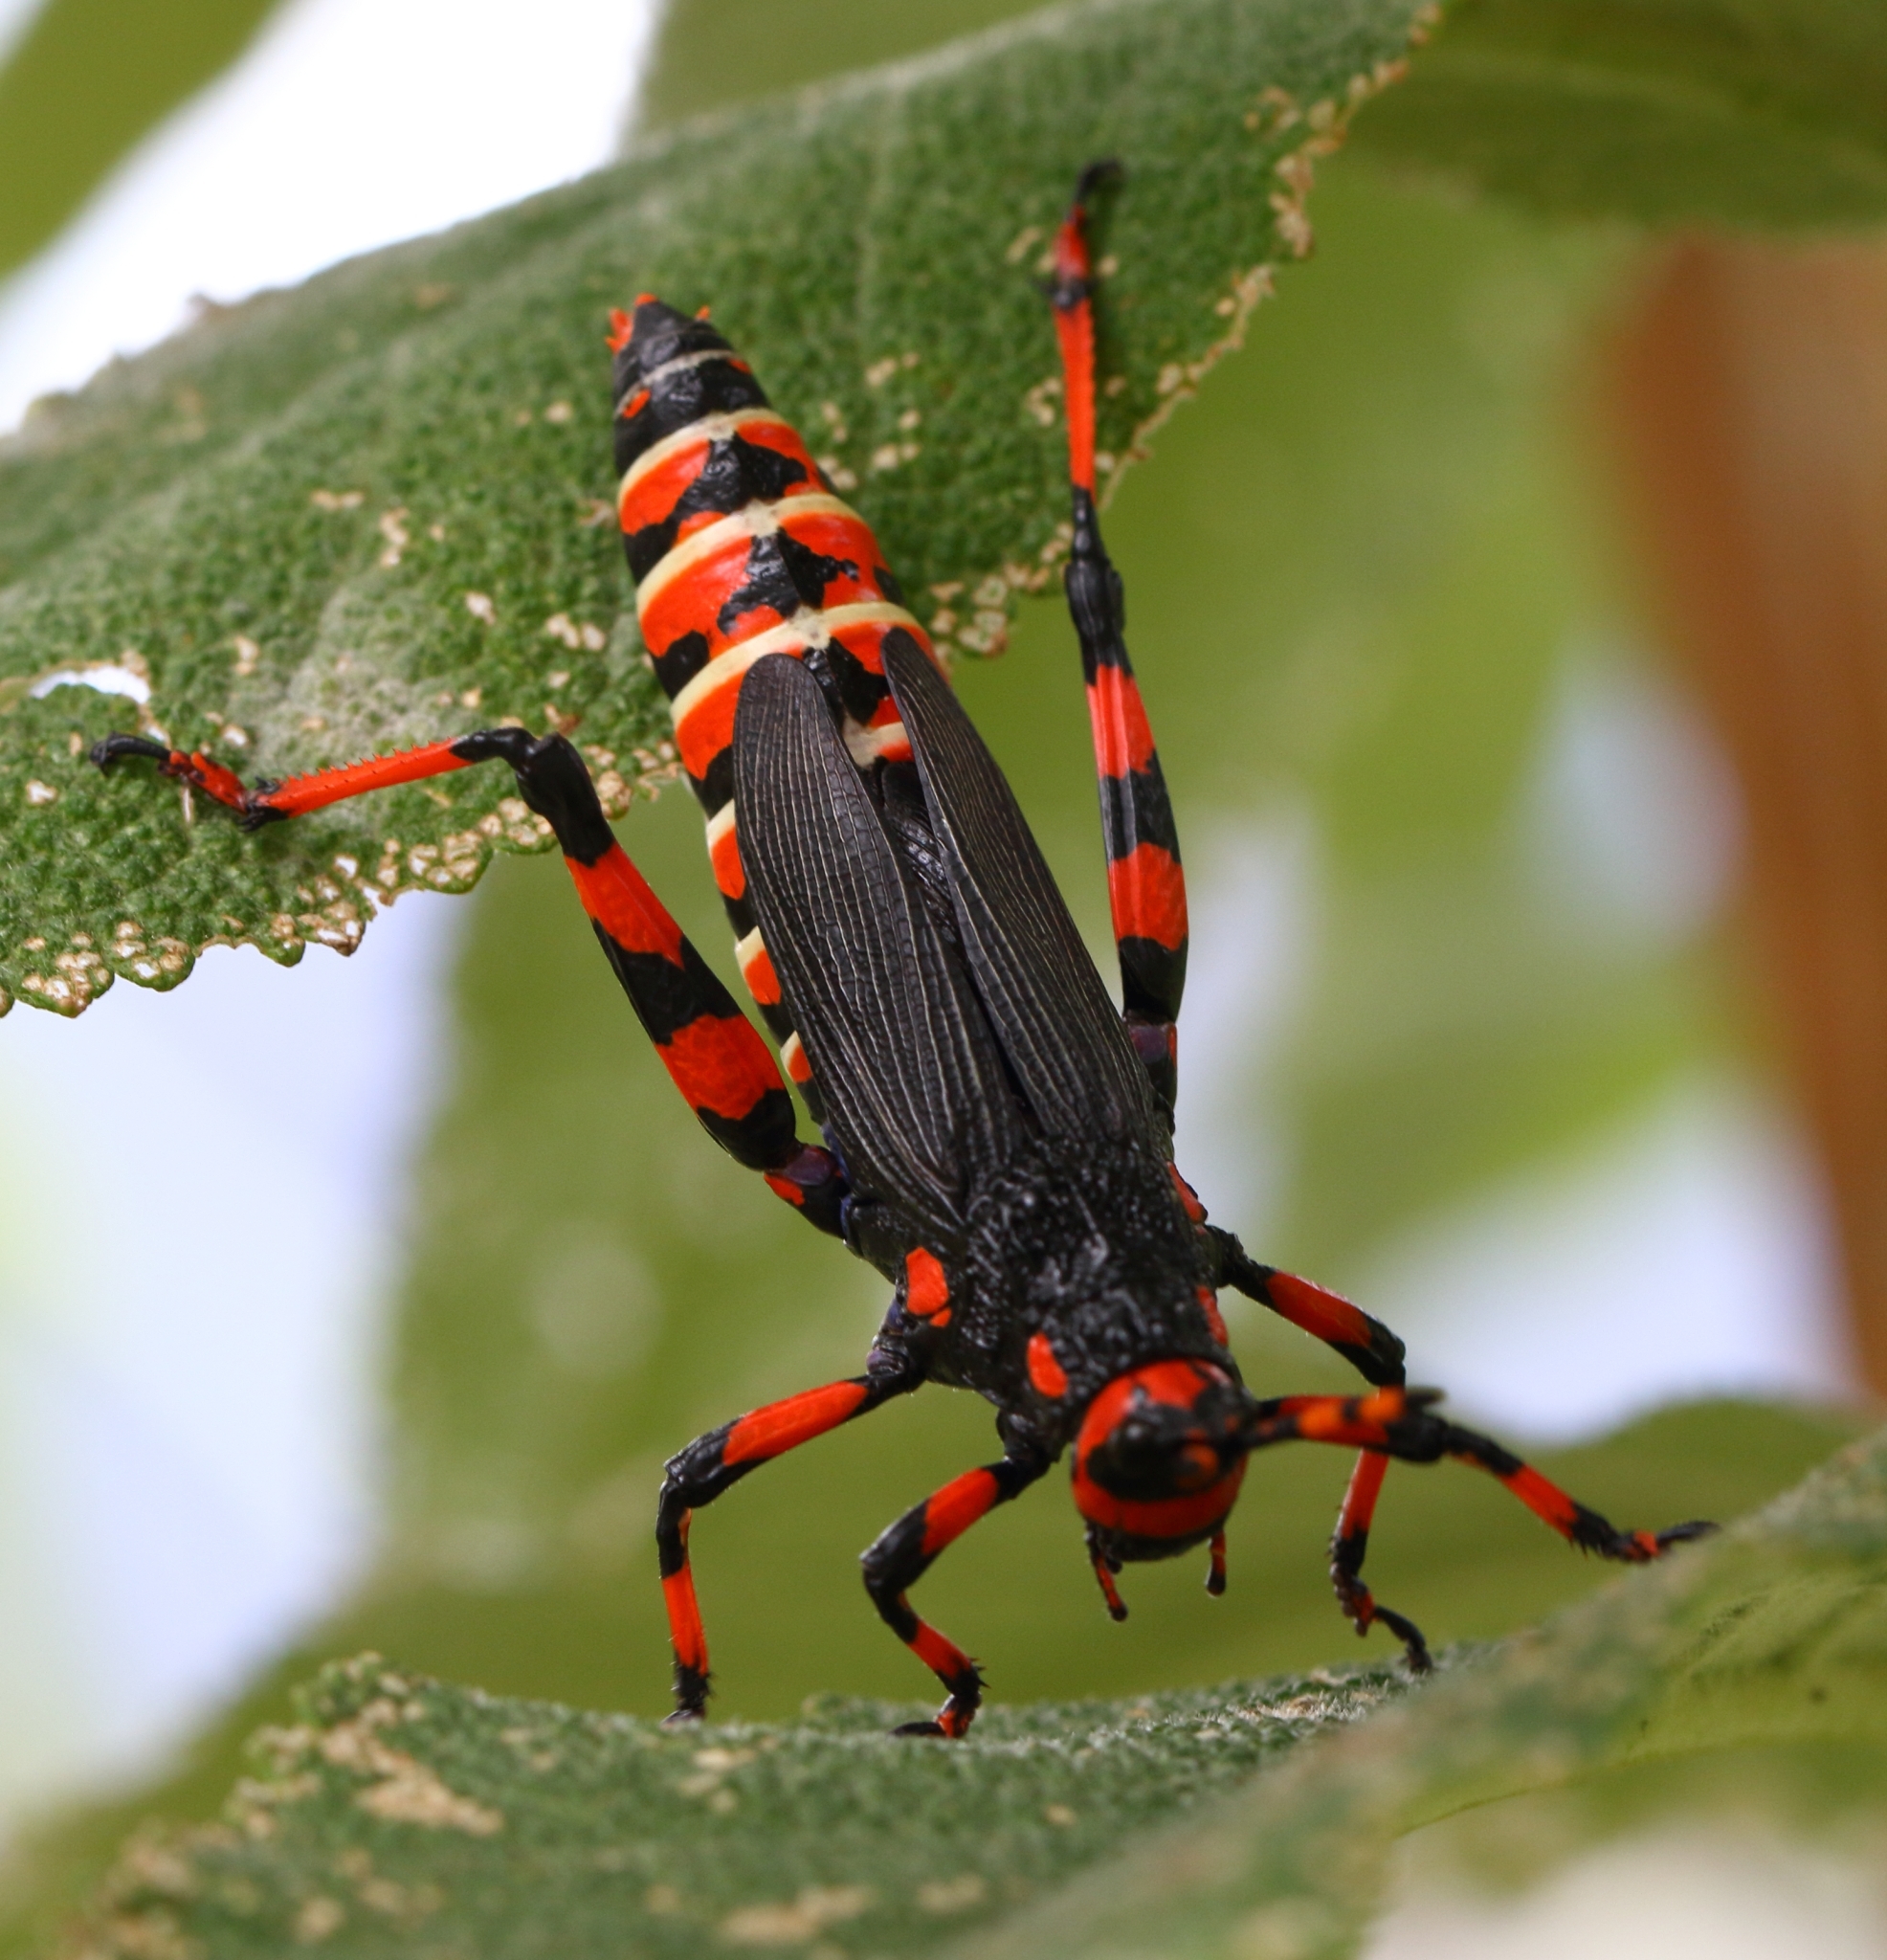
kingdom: Animalia
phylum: Arthropoda
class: Insecta
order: Orthoptera
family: Pyrgomorphidae
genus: Maura
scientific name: Maura rubroornata
